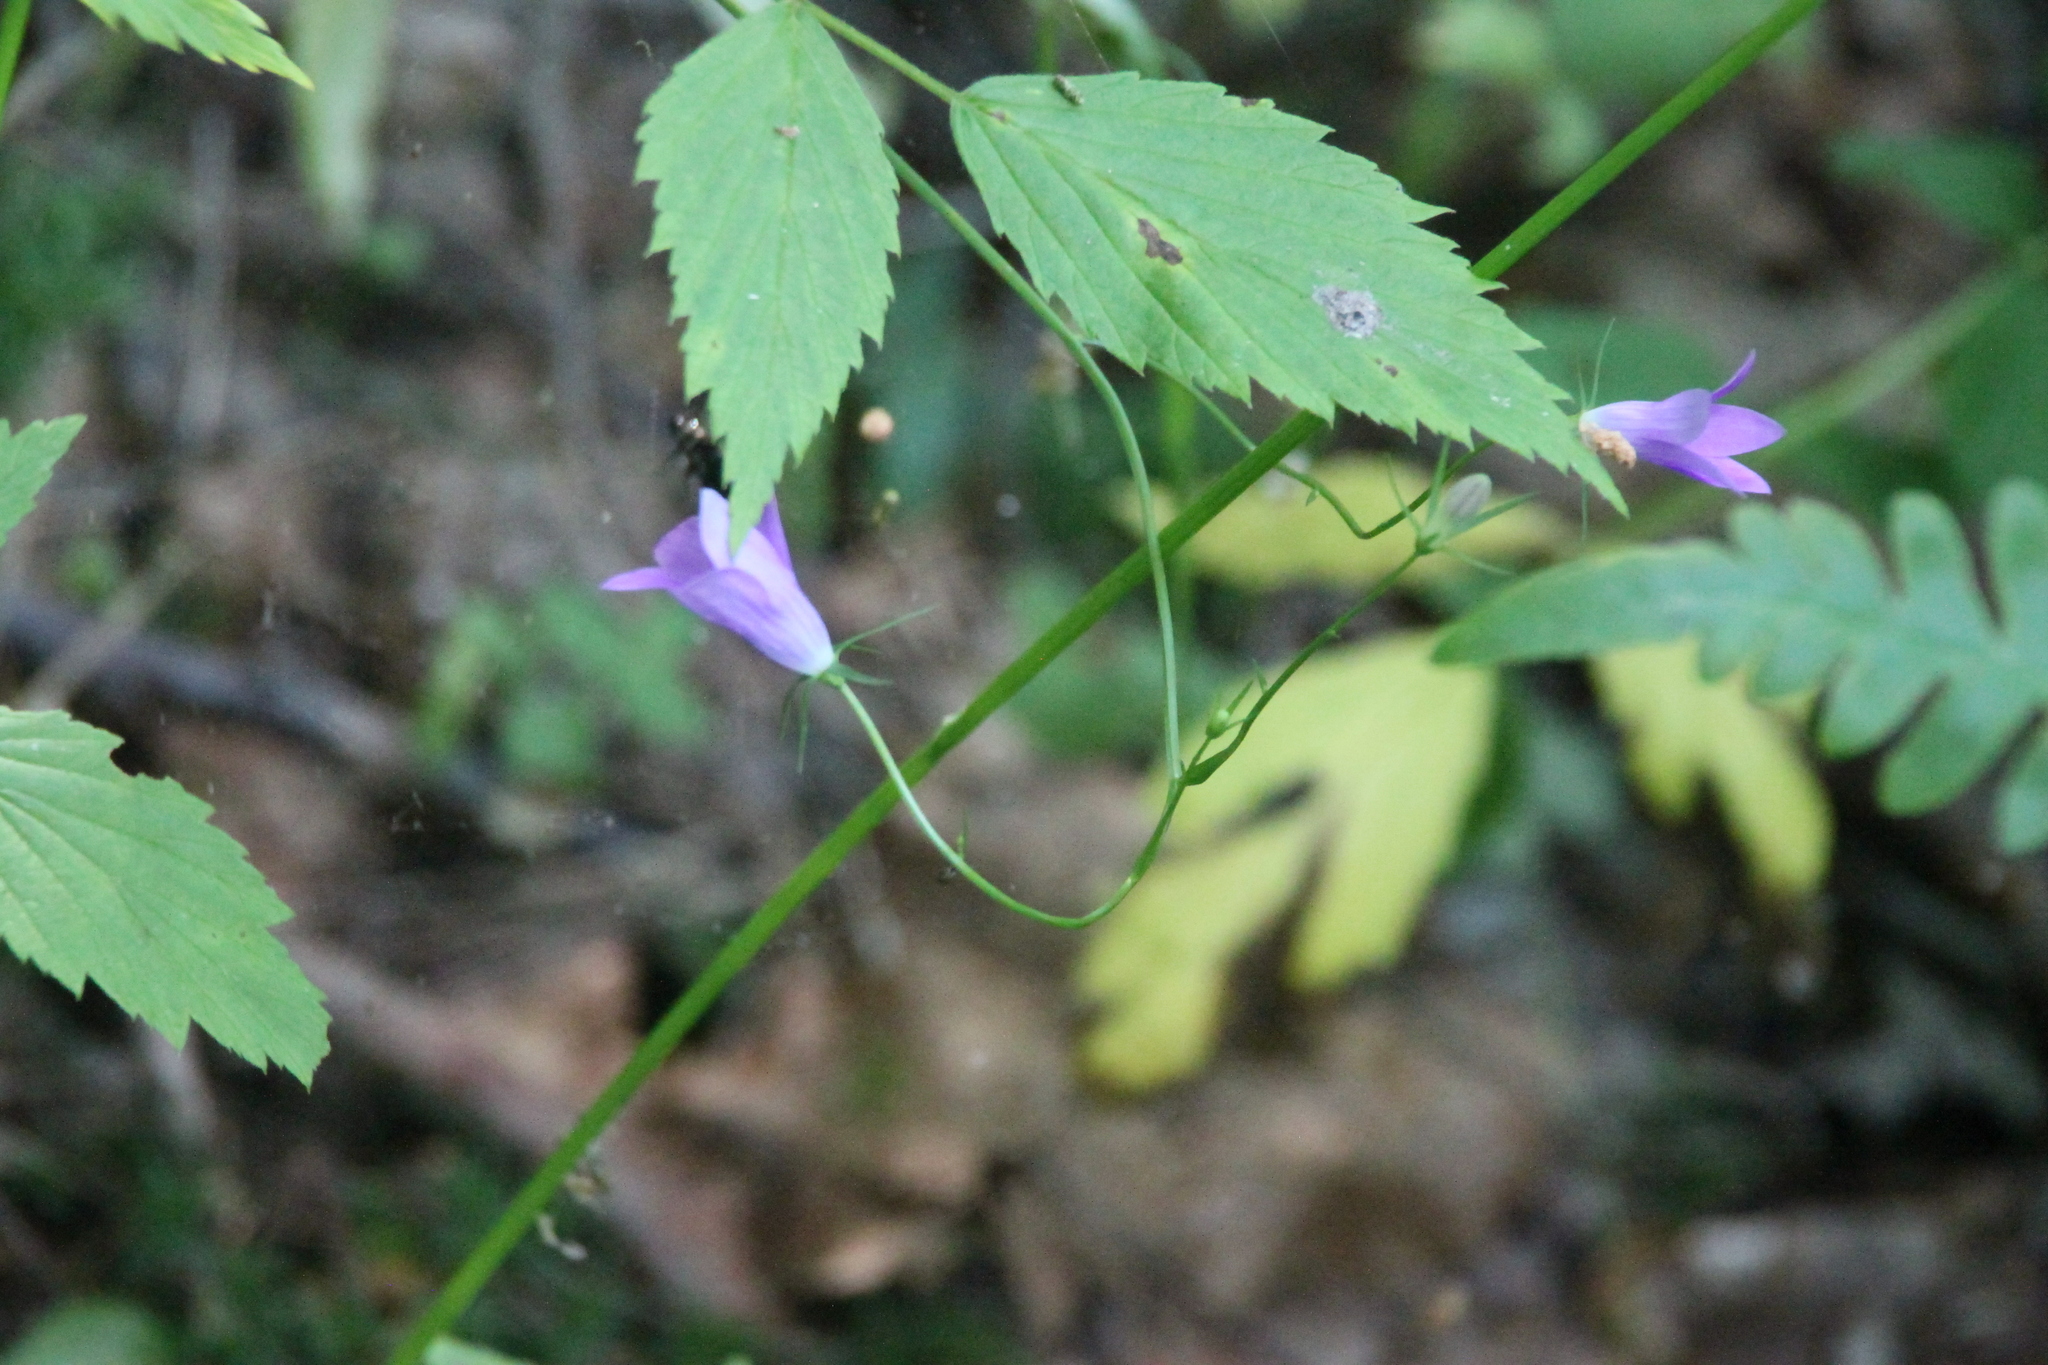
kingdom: Plantae
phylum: Tracheophyta
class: Magnoliopsida
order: Asterales
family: Campanulaceae
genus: Campanula
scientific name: Campanula patula
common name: Spreading bellflower
